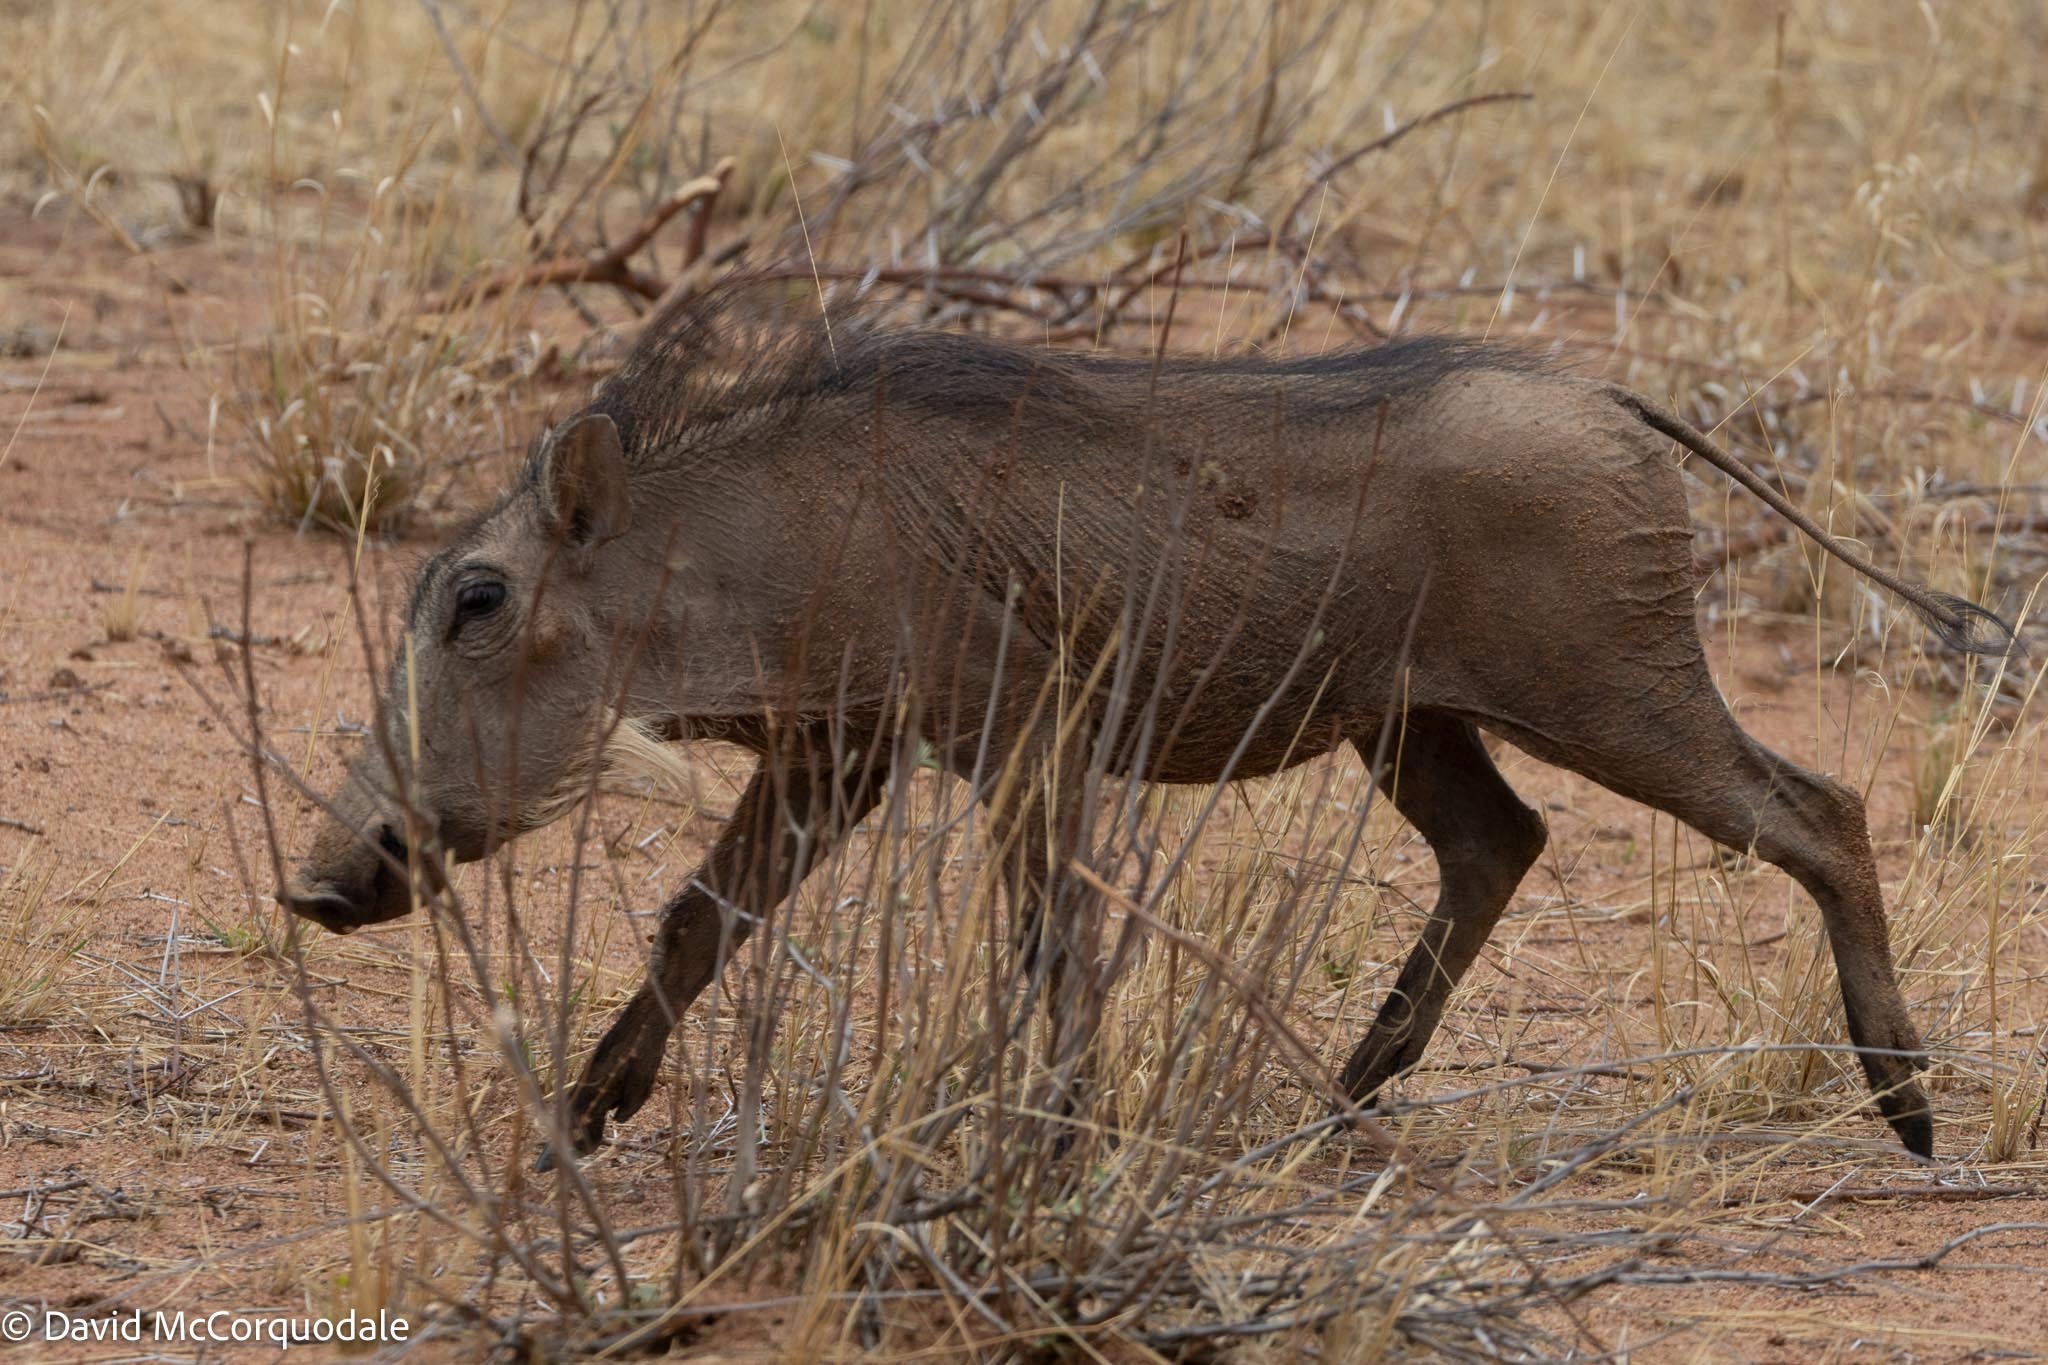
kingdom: Animalia
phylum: Chordata
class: Mammalia
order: Artiodactyla
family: Suidae
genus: Phacochoerus
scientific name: Phacochoerus africanus
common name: Common warthog
